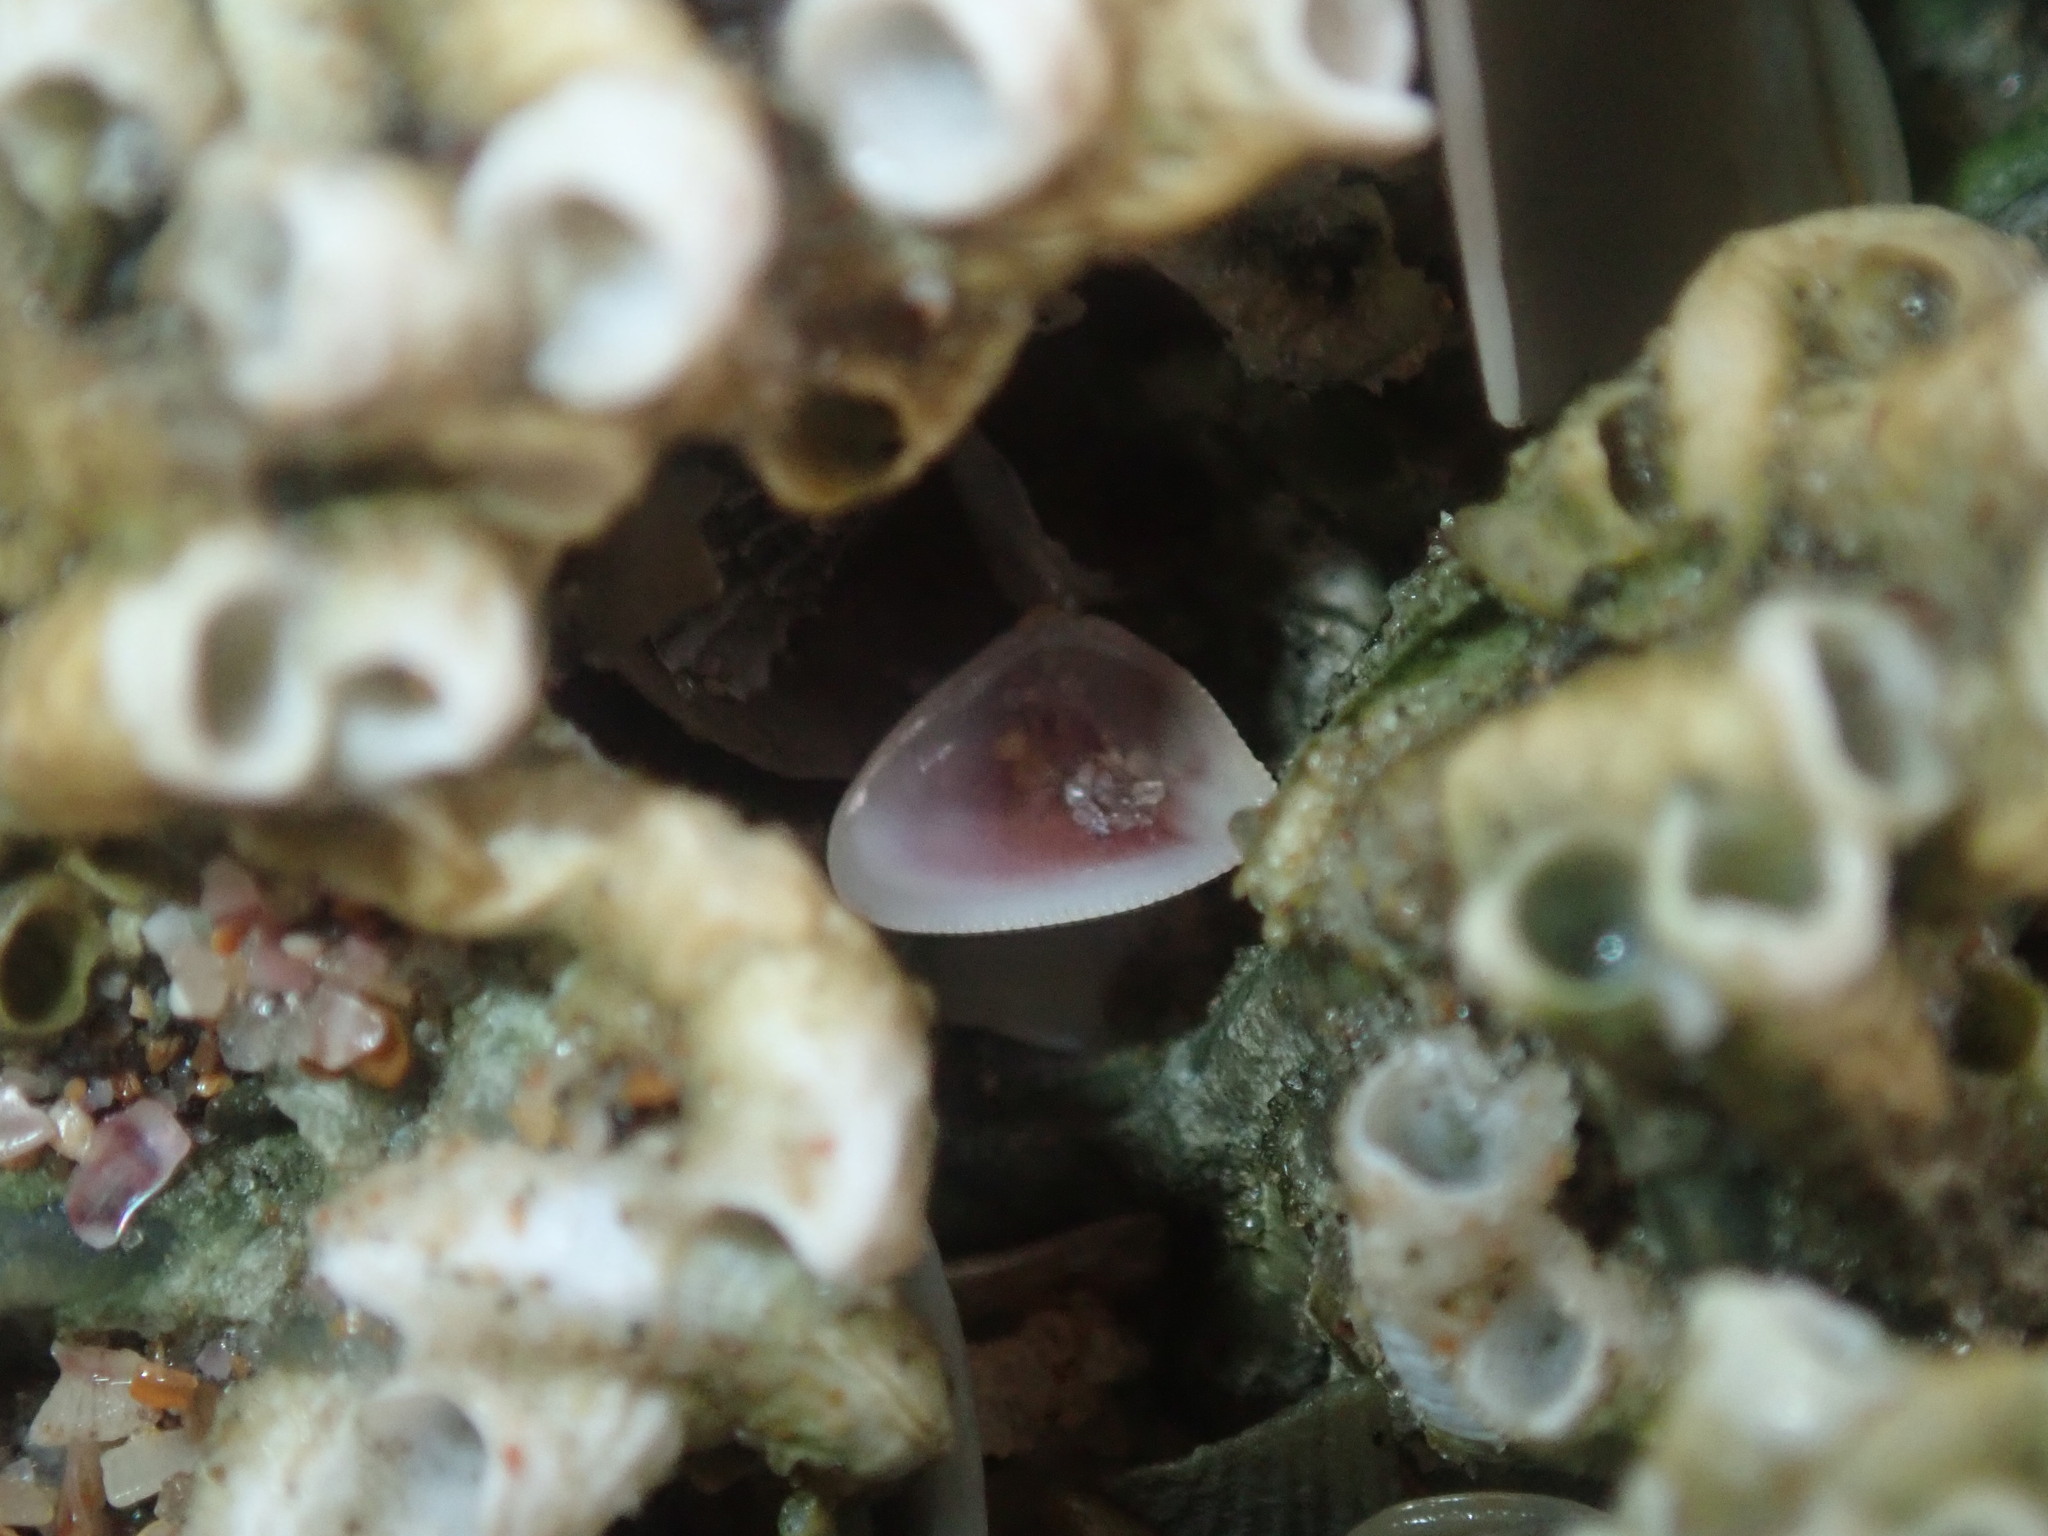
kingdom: Animalia
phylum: Mollusca
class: Bivalvia
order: Cardiida
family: Donacidae
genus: Donax
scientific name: Donax brazieri
